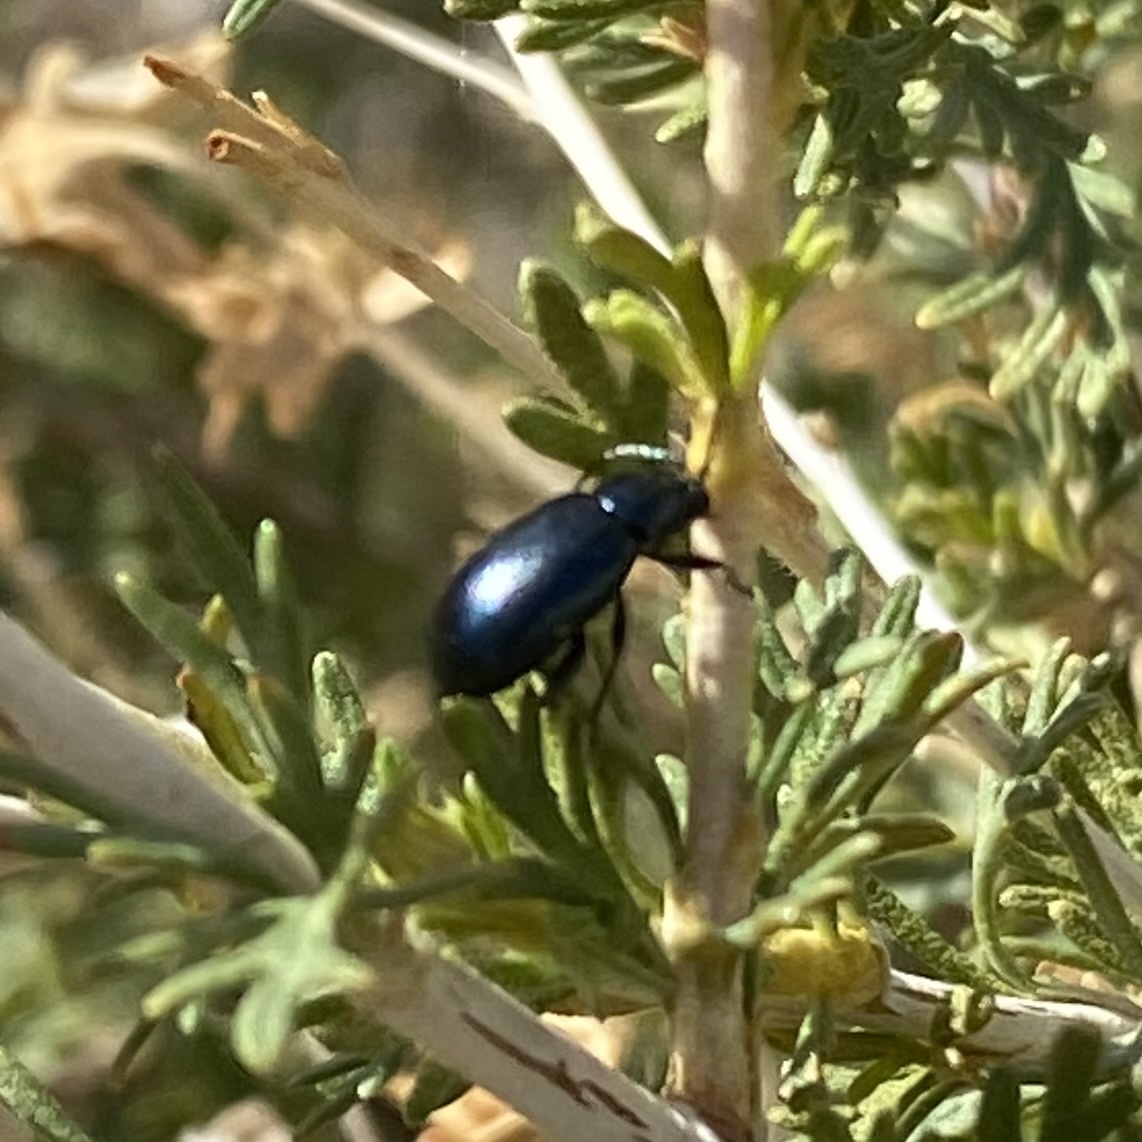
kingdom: Animalia
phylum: Arthropoda
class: Insecta
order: Coleoptera
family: Chrysomelidae
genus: Altica
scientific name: Altica obliterata
